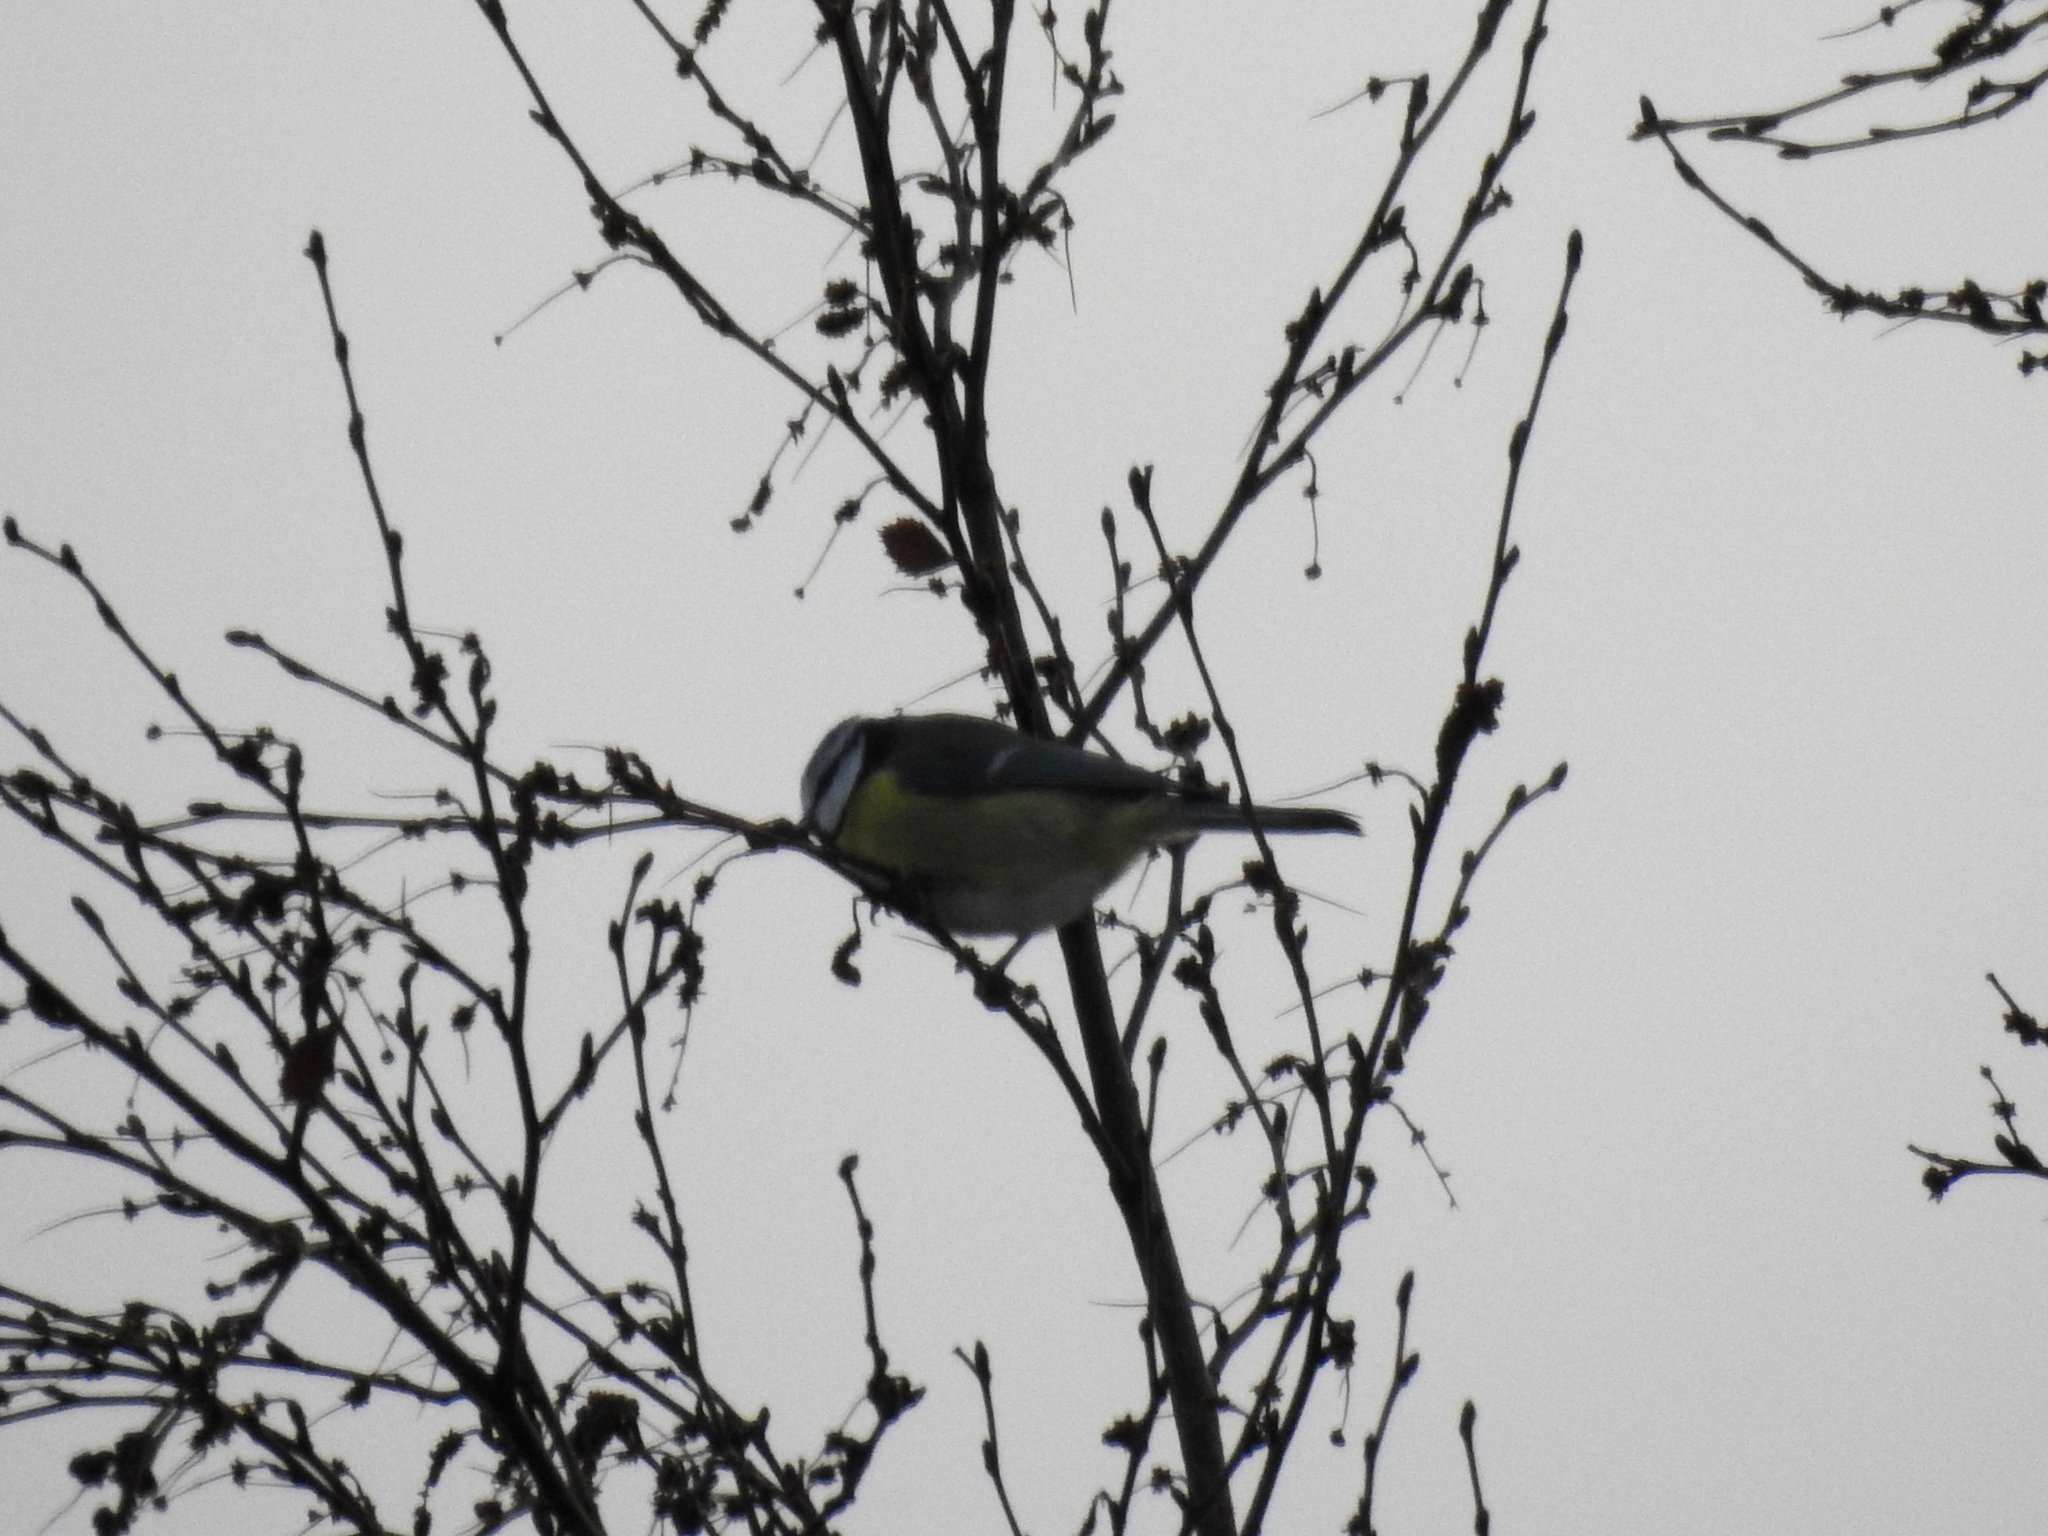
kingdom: Animalia
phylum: Chordata
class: Aves
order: Passeriformes
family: Paridae
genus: Cyanistes
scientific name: Cyanistes caeruleus
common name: Eurasian blue tit
